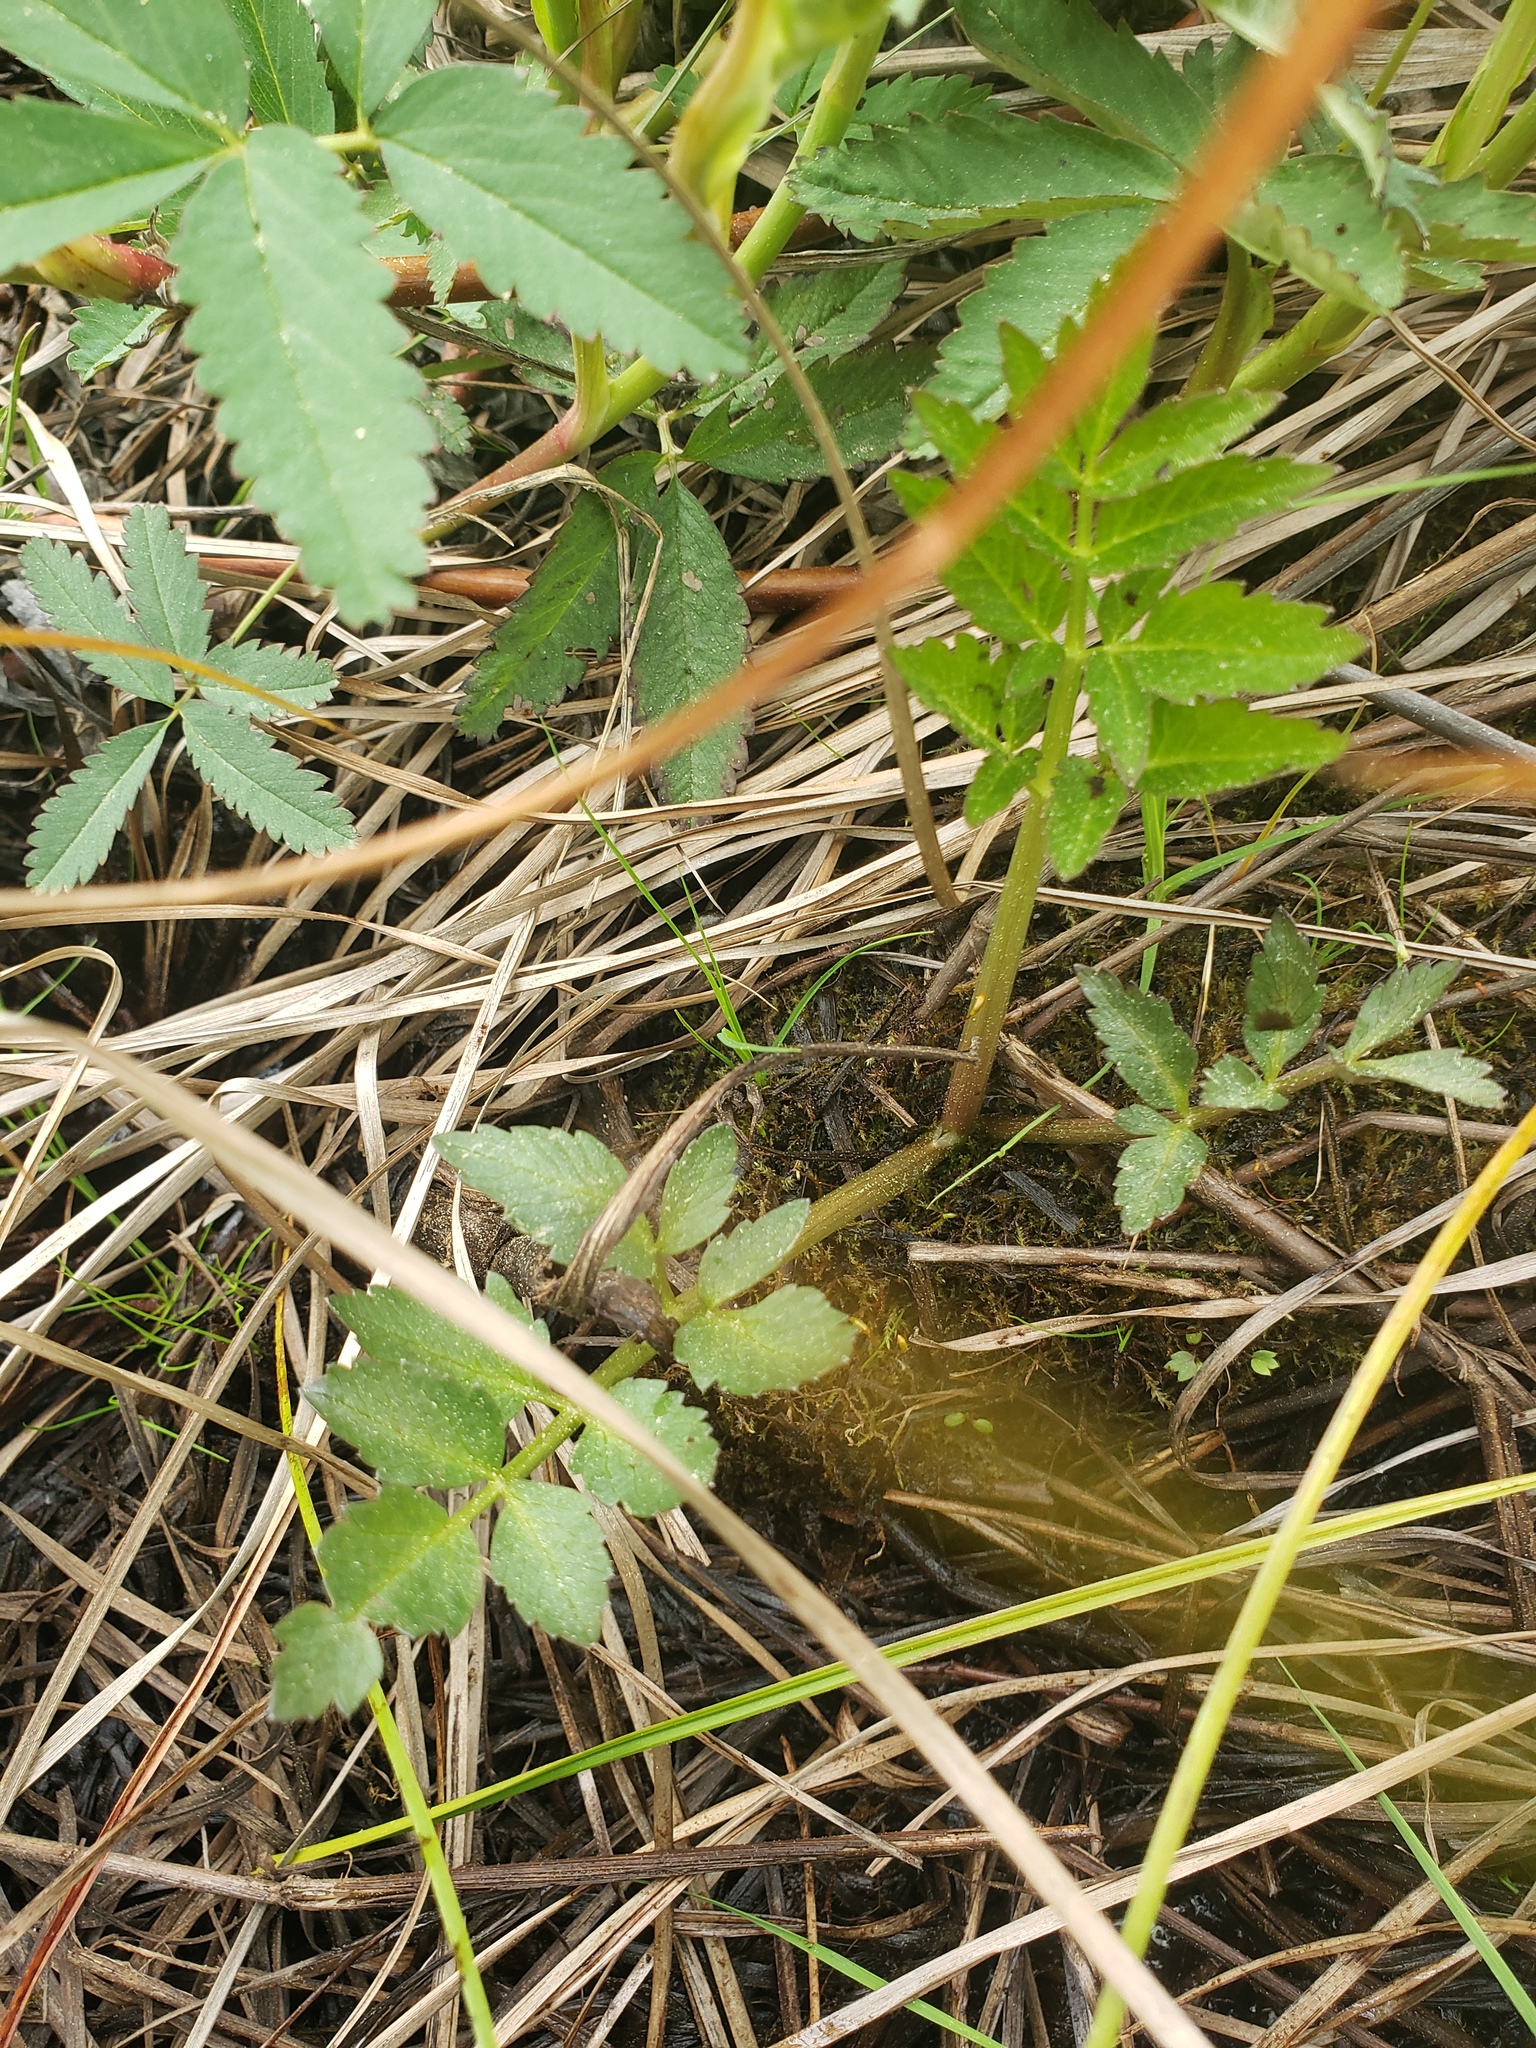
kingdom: Plantae
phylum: Tracheophyta
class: Magnoliopsida
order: Apiales
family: Apiaceae
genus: Cicuta
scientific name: Cicuta douglasii
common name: Western water-hemlock
